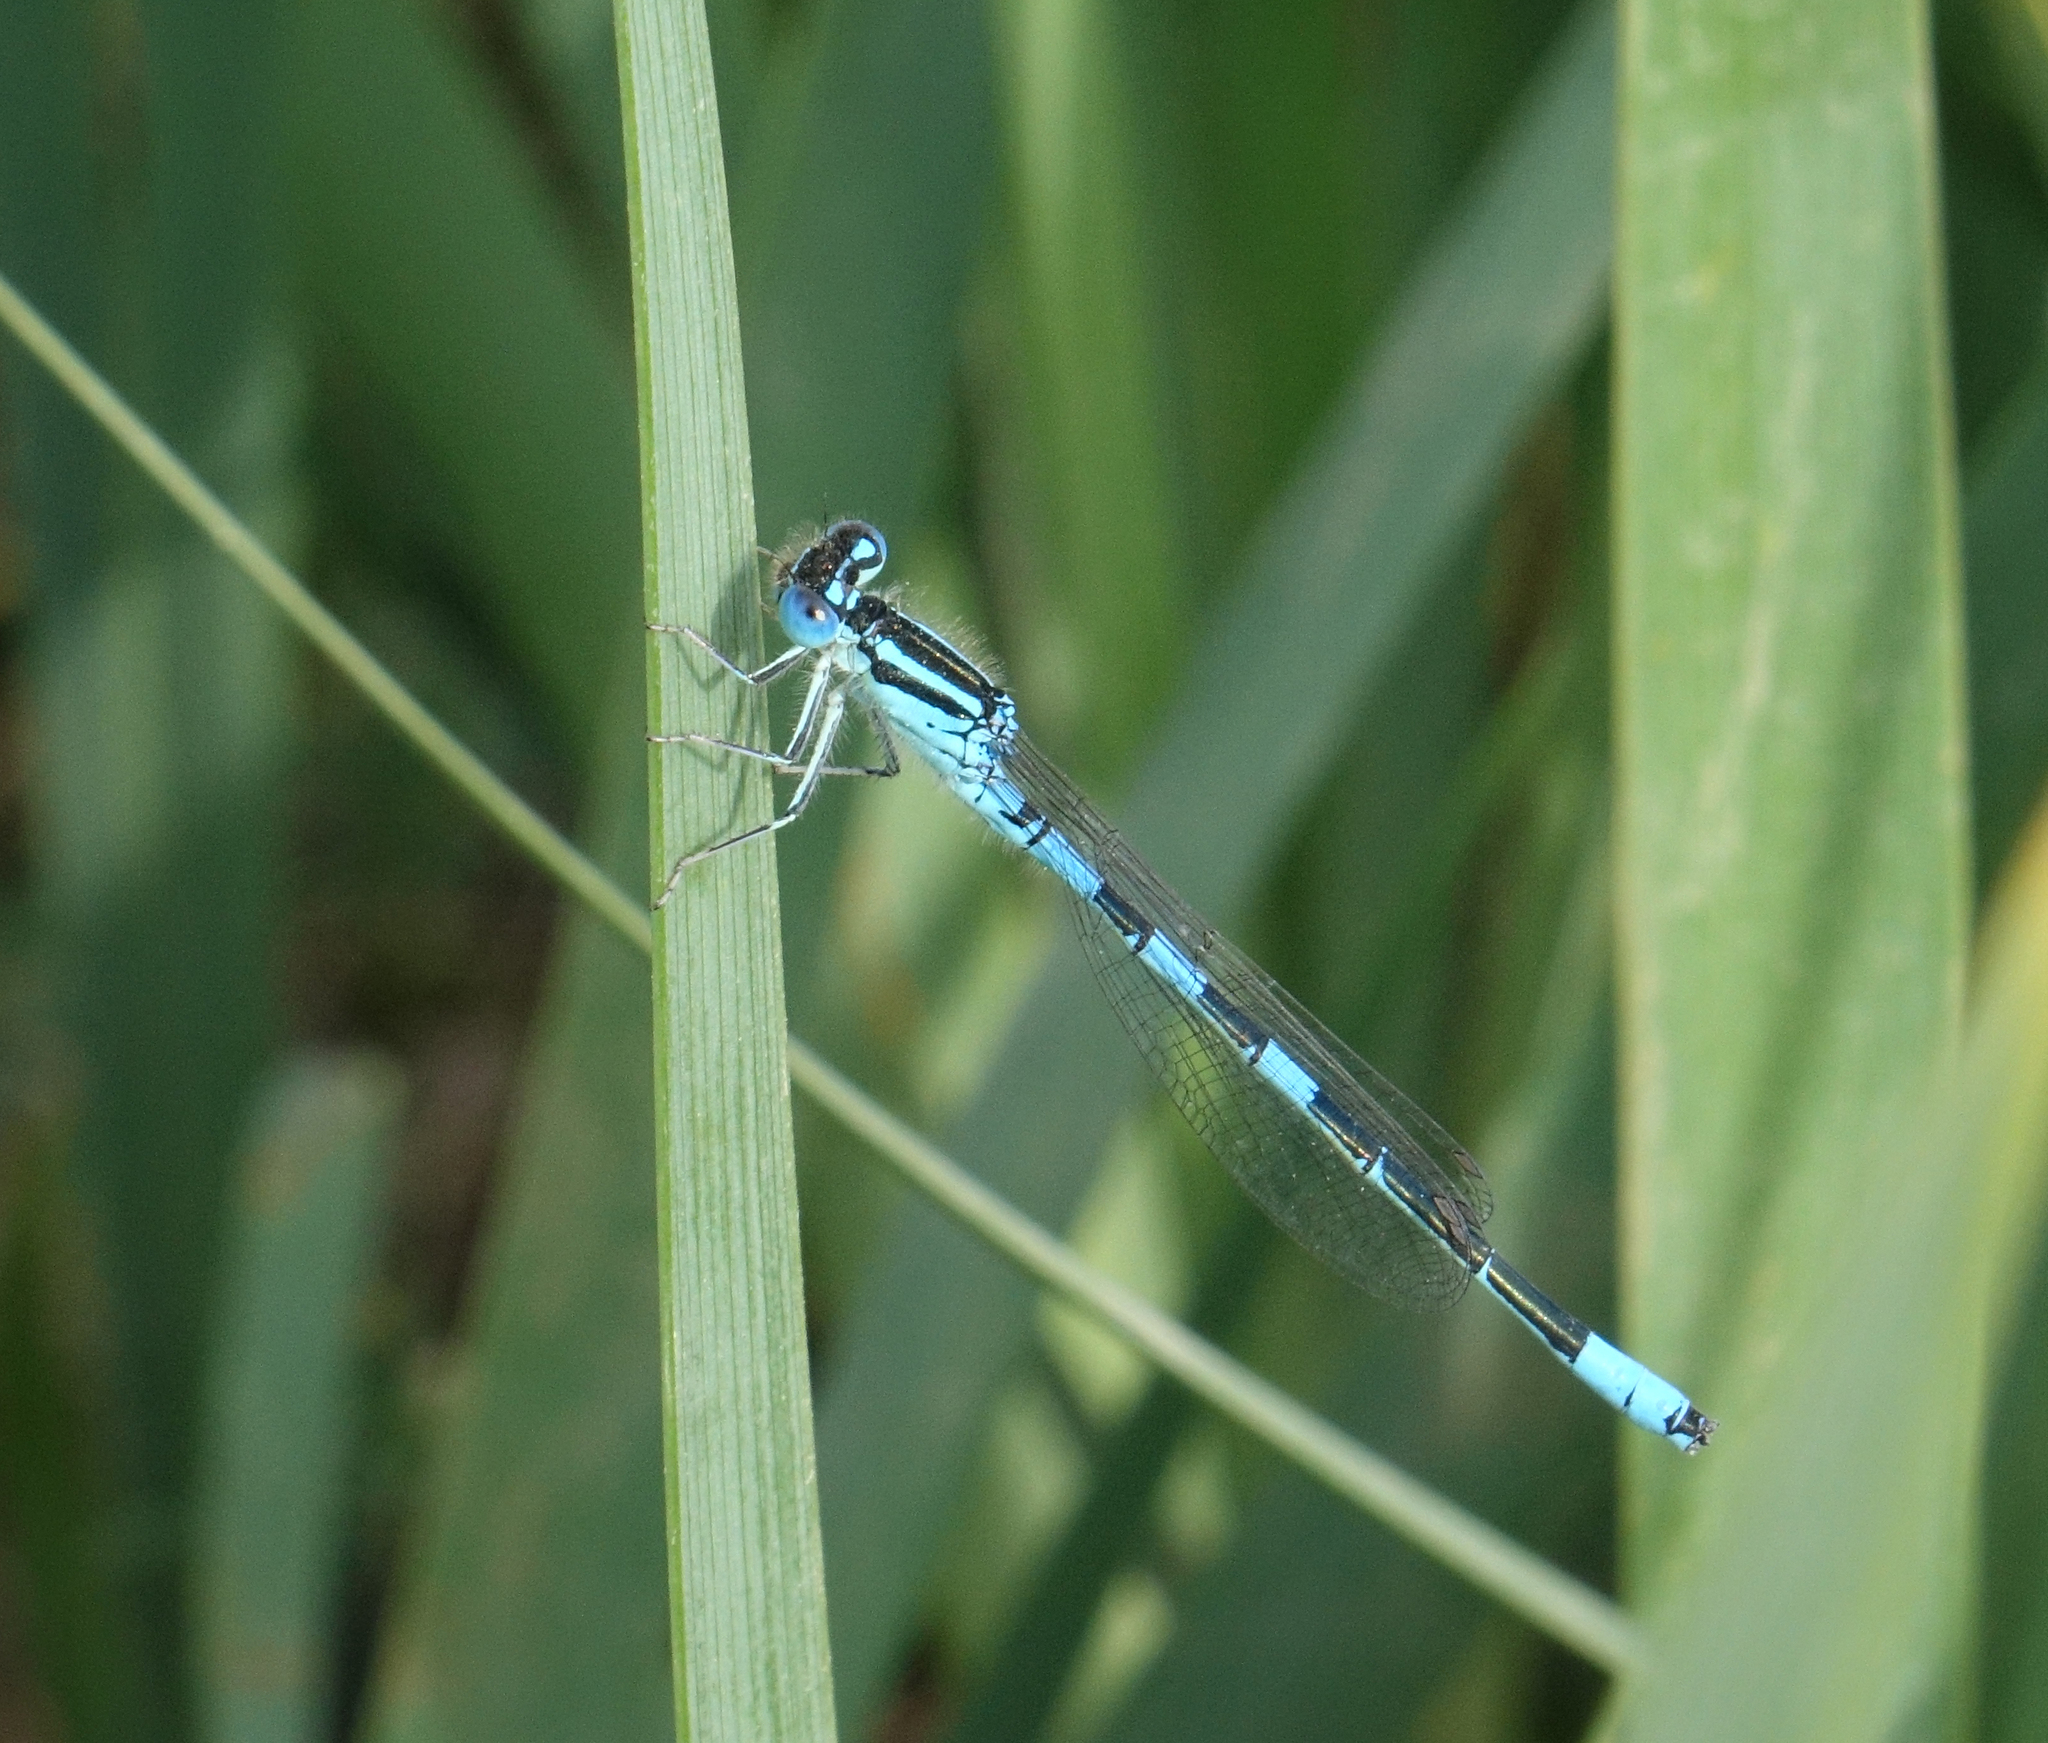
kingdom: Animalia
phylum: Arthropoda
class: Insecta
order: Odonata
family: Coenagrionidae
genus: Coenagrion
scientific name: Coenagrion scitulum
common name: Dainty bluet
